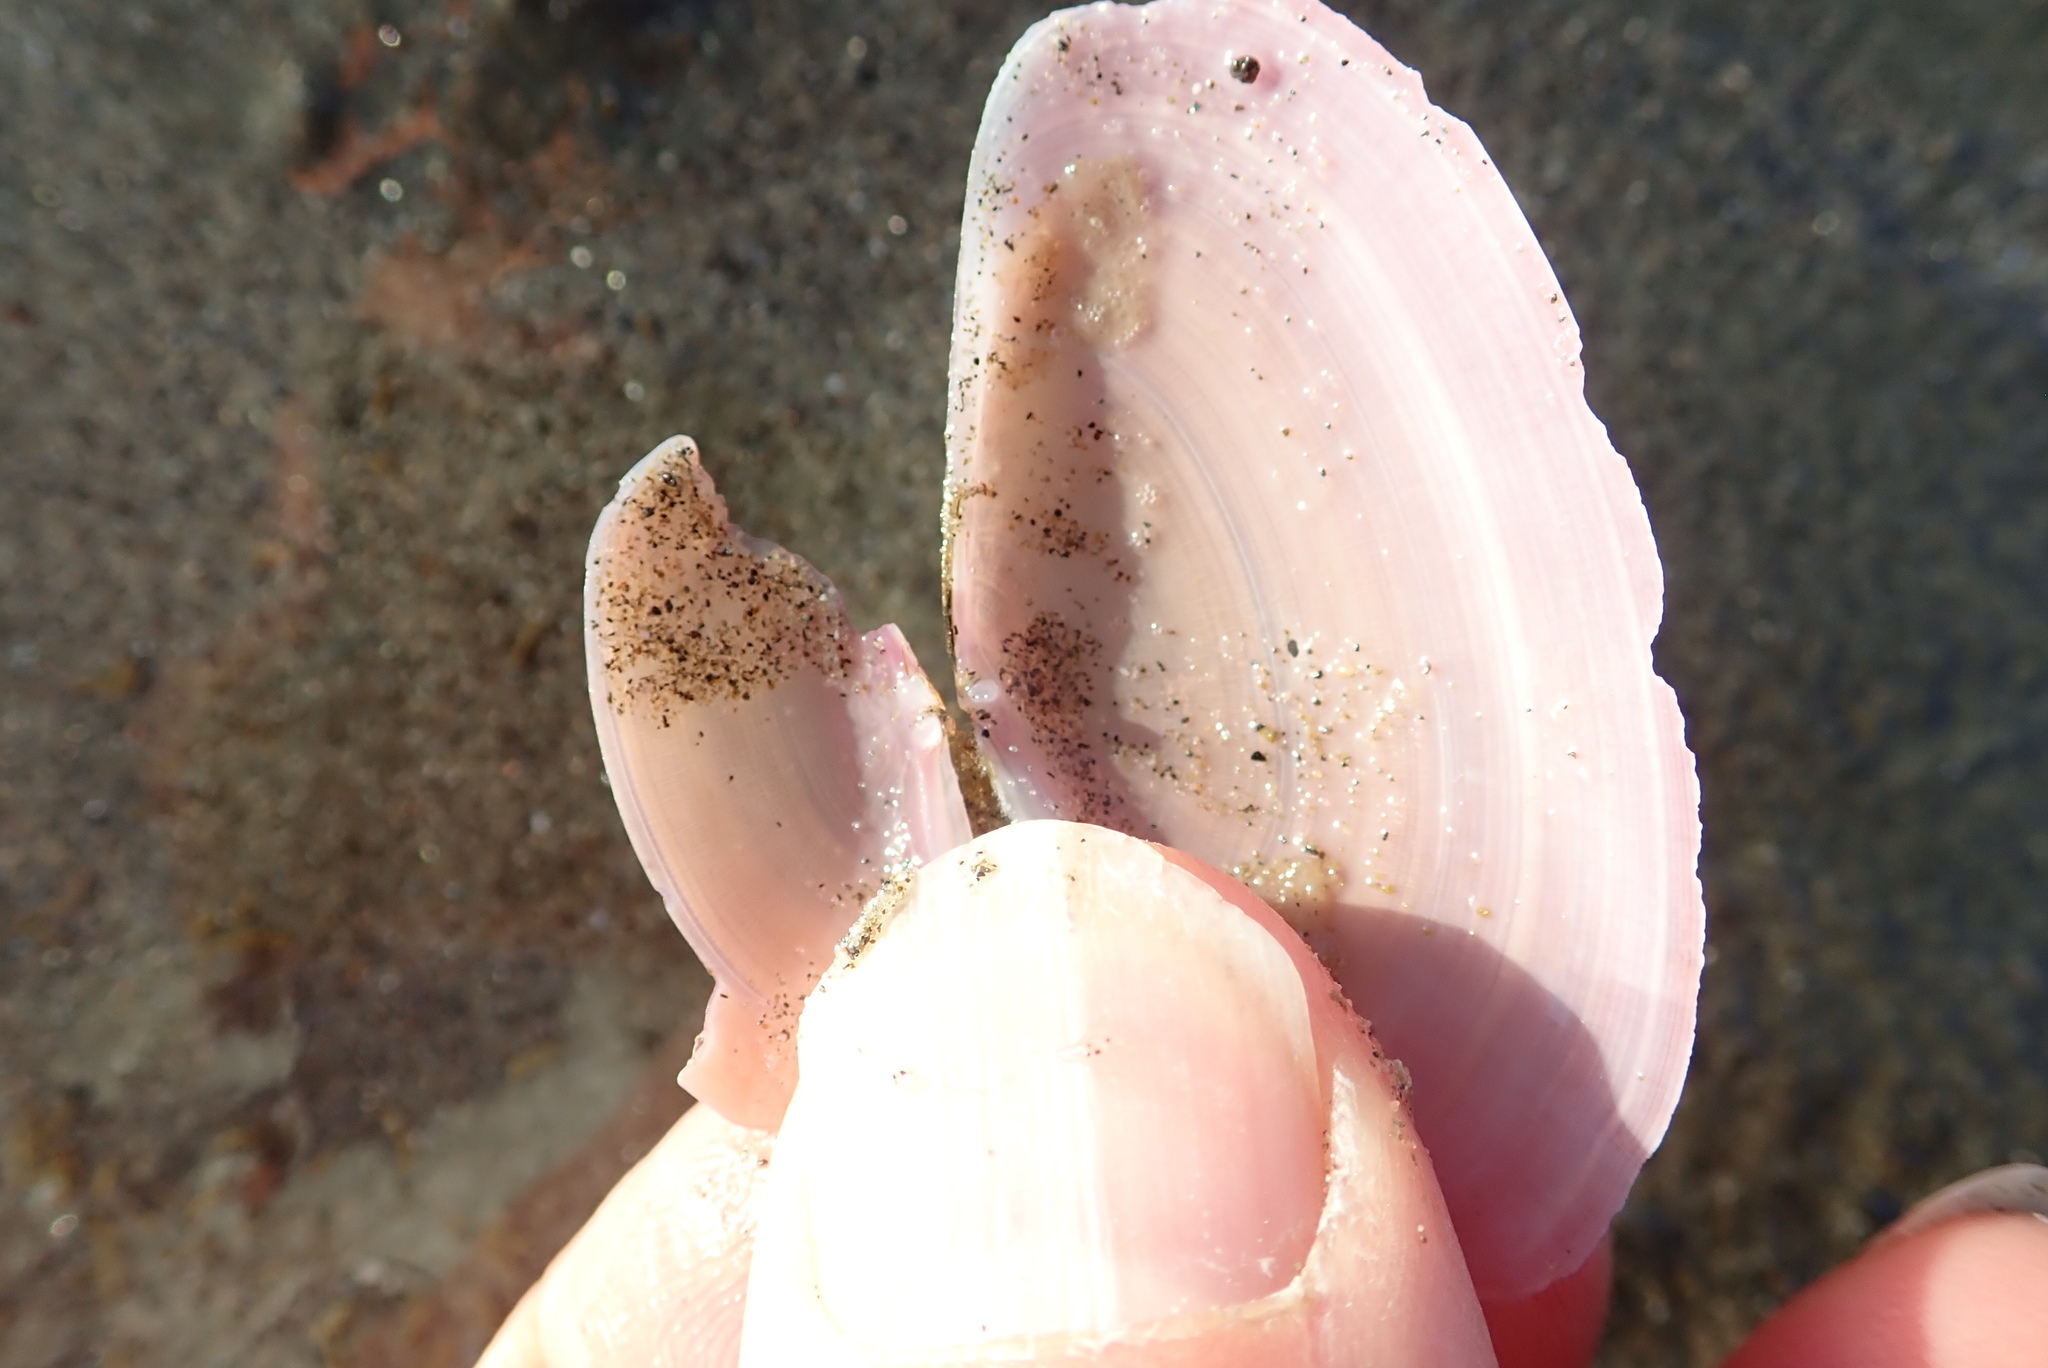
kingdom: Animalia
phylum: Mollusca
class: Bivalvia
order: Cardiida
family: Psammobiidae
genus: Gari
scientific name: Gari lineolata
